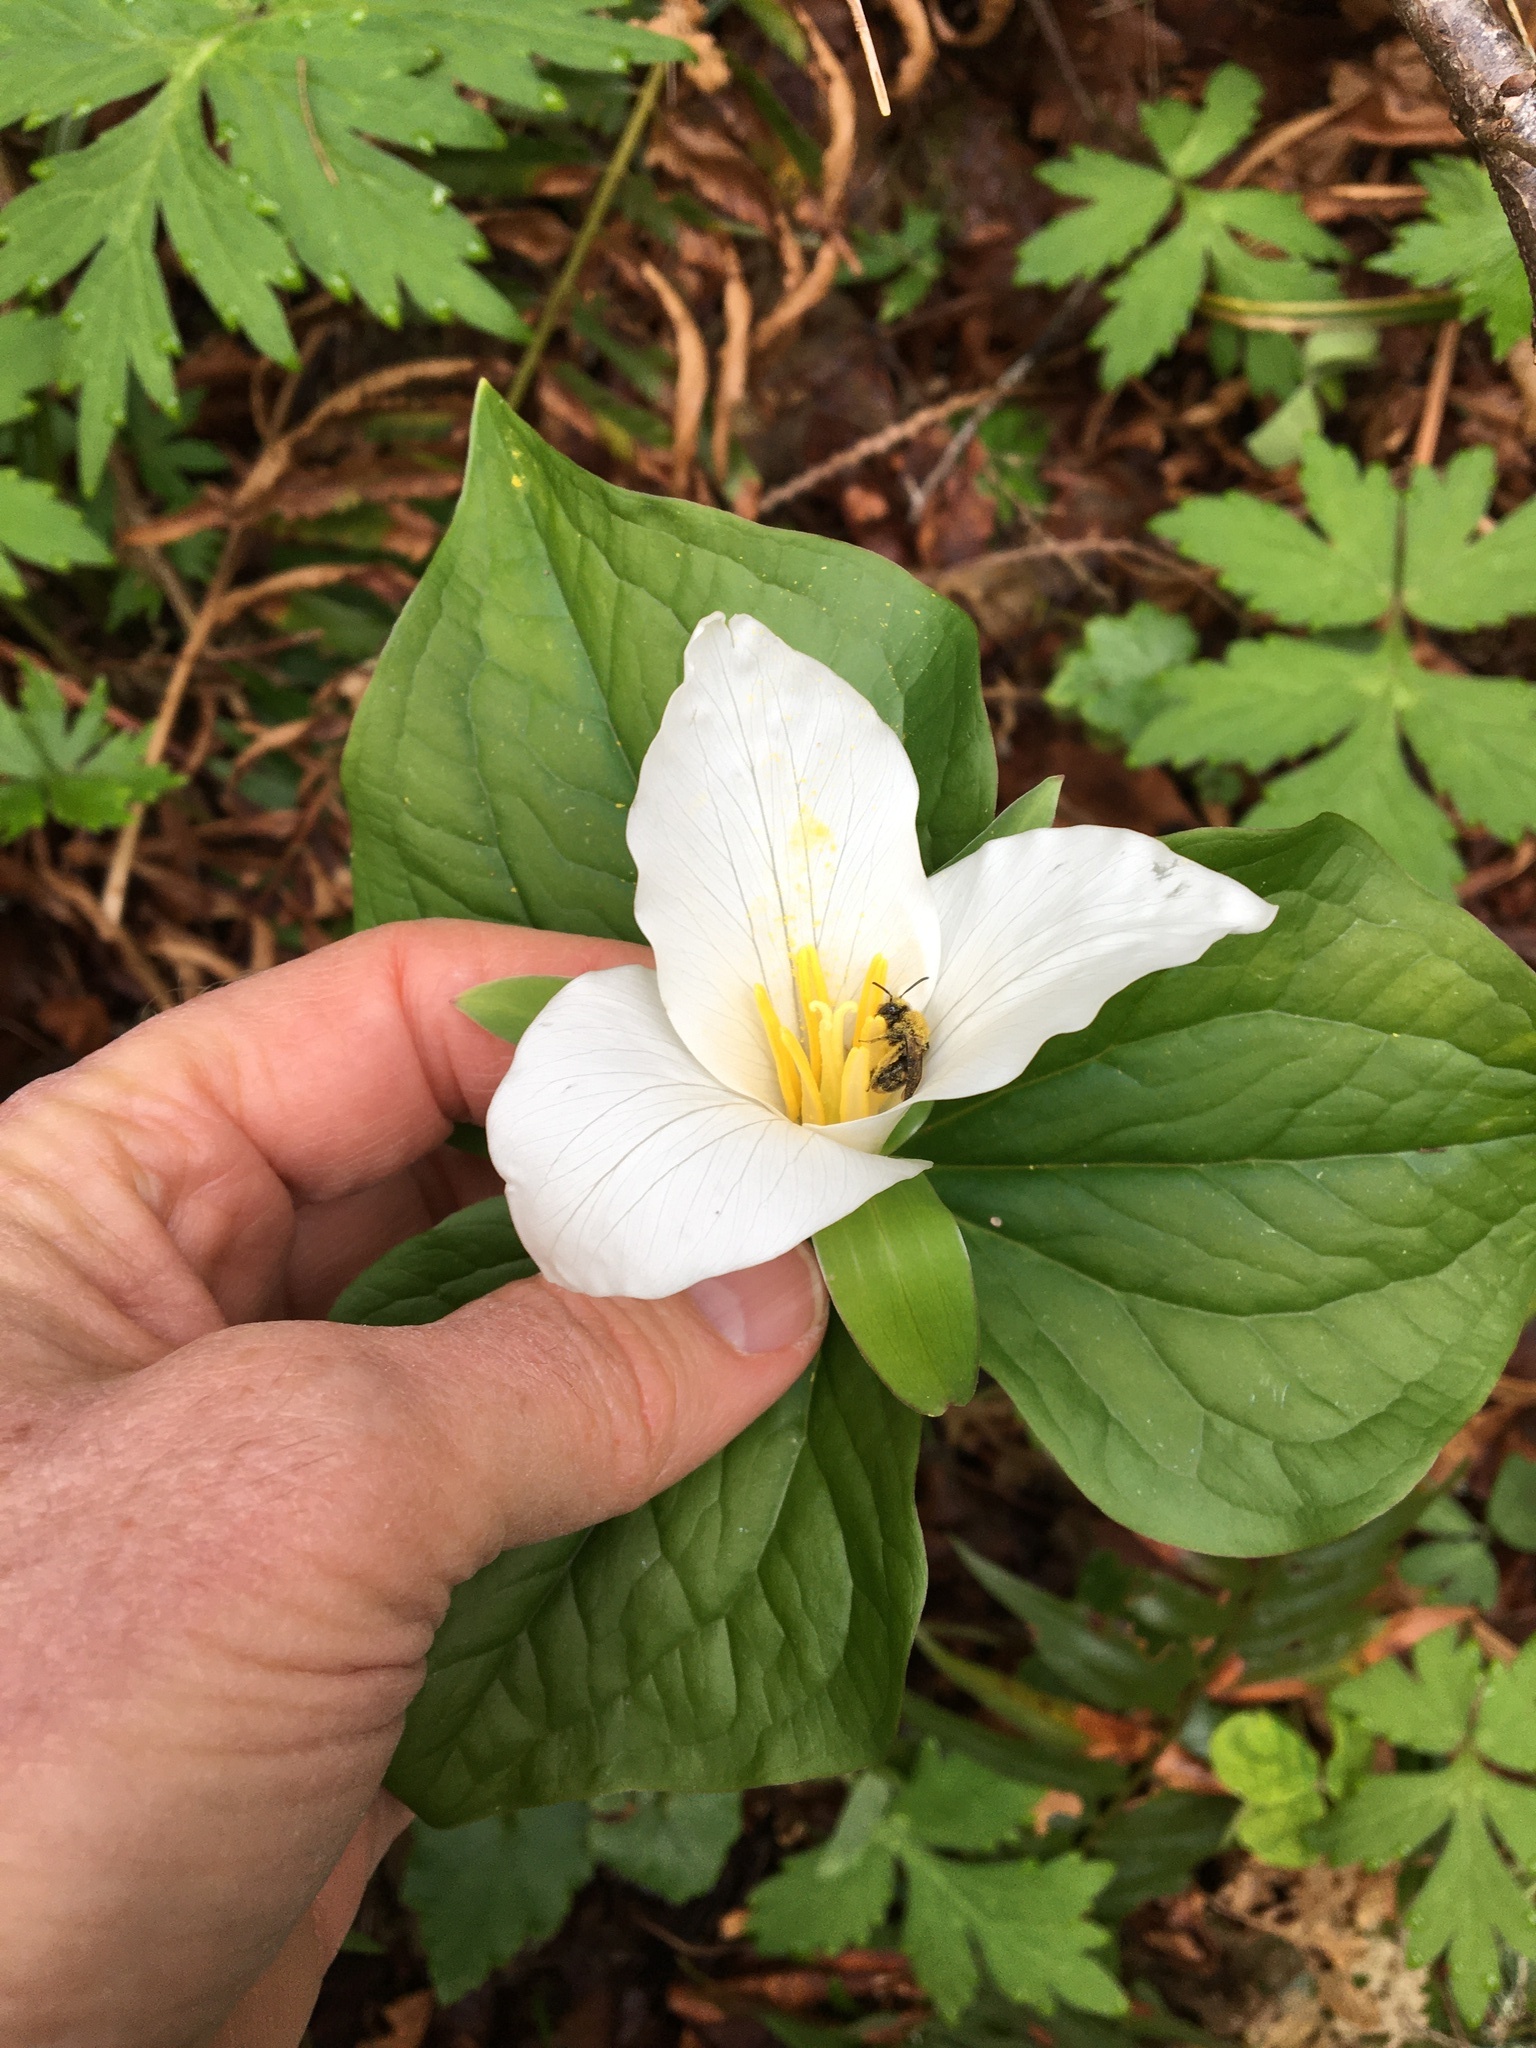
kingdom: Plantae
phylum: Tracheophyta
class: Liliopsida
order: Liliales
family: Melanthiaceae
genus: Trillium
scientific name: Trillium ovatum
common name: Pacific trillium
